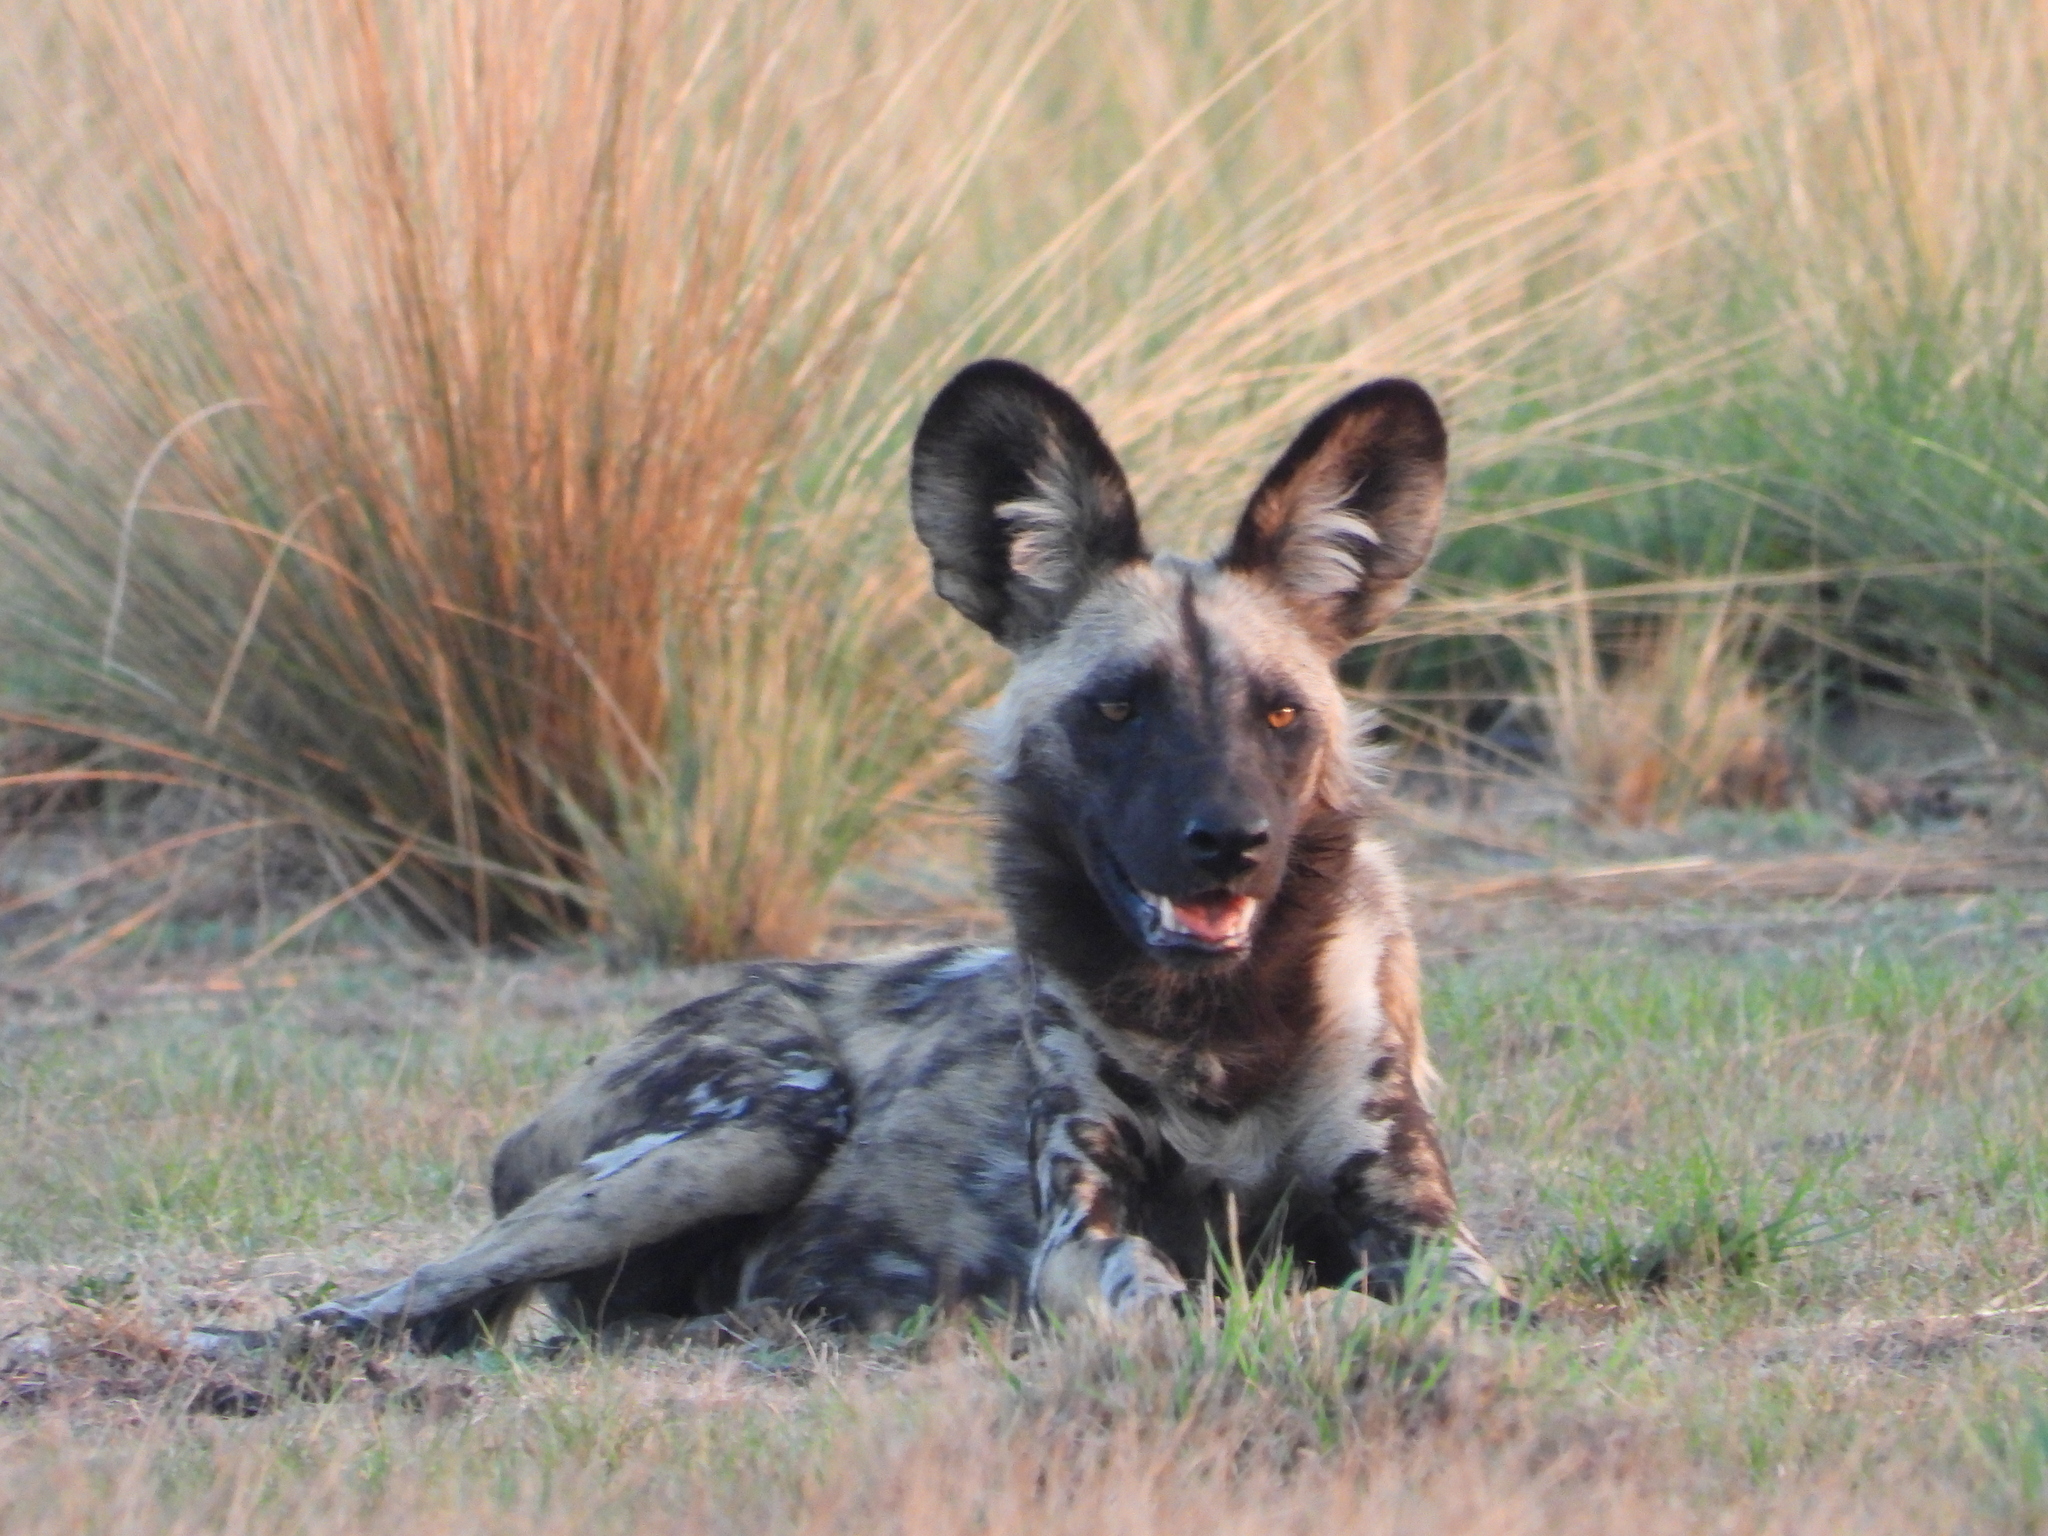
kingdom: Animalia
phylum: Chordata
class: Mammalia
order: Carnivora
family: Canidae
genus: Lycaon
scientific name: Lycaon pictus
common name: African wild dog
